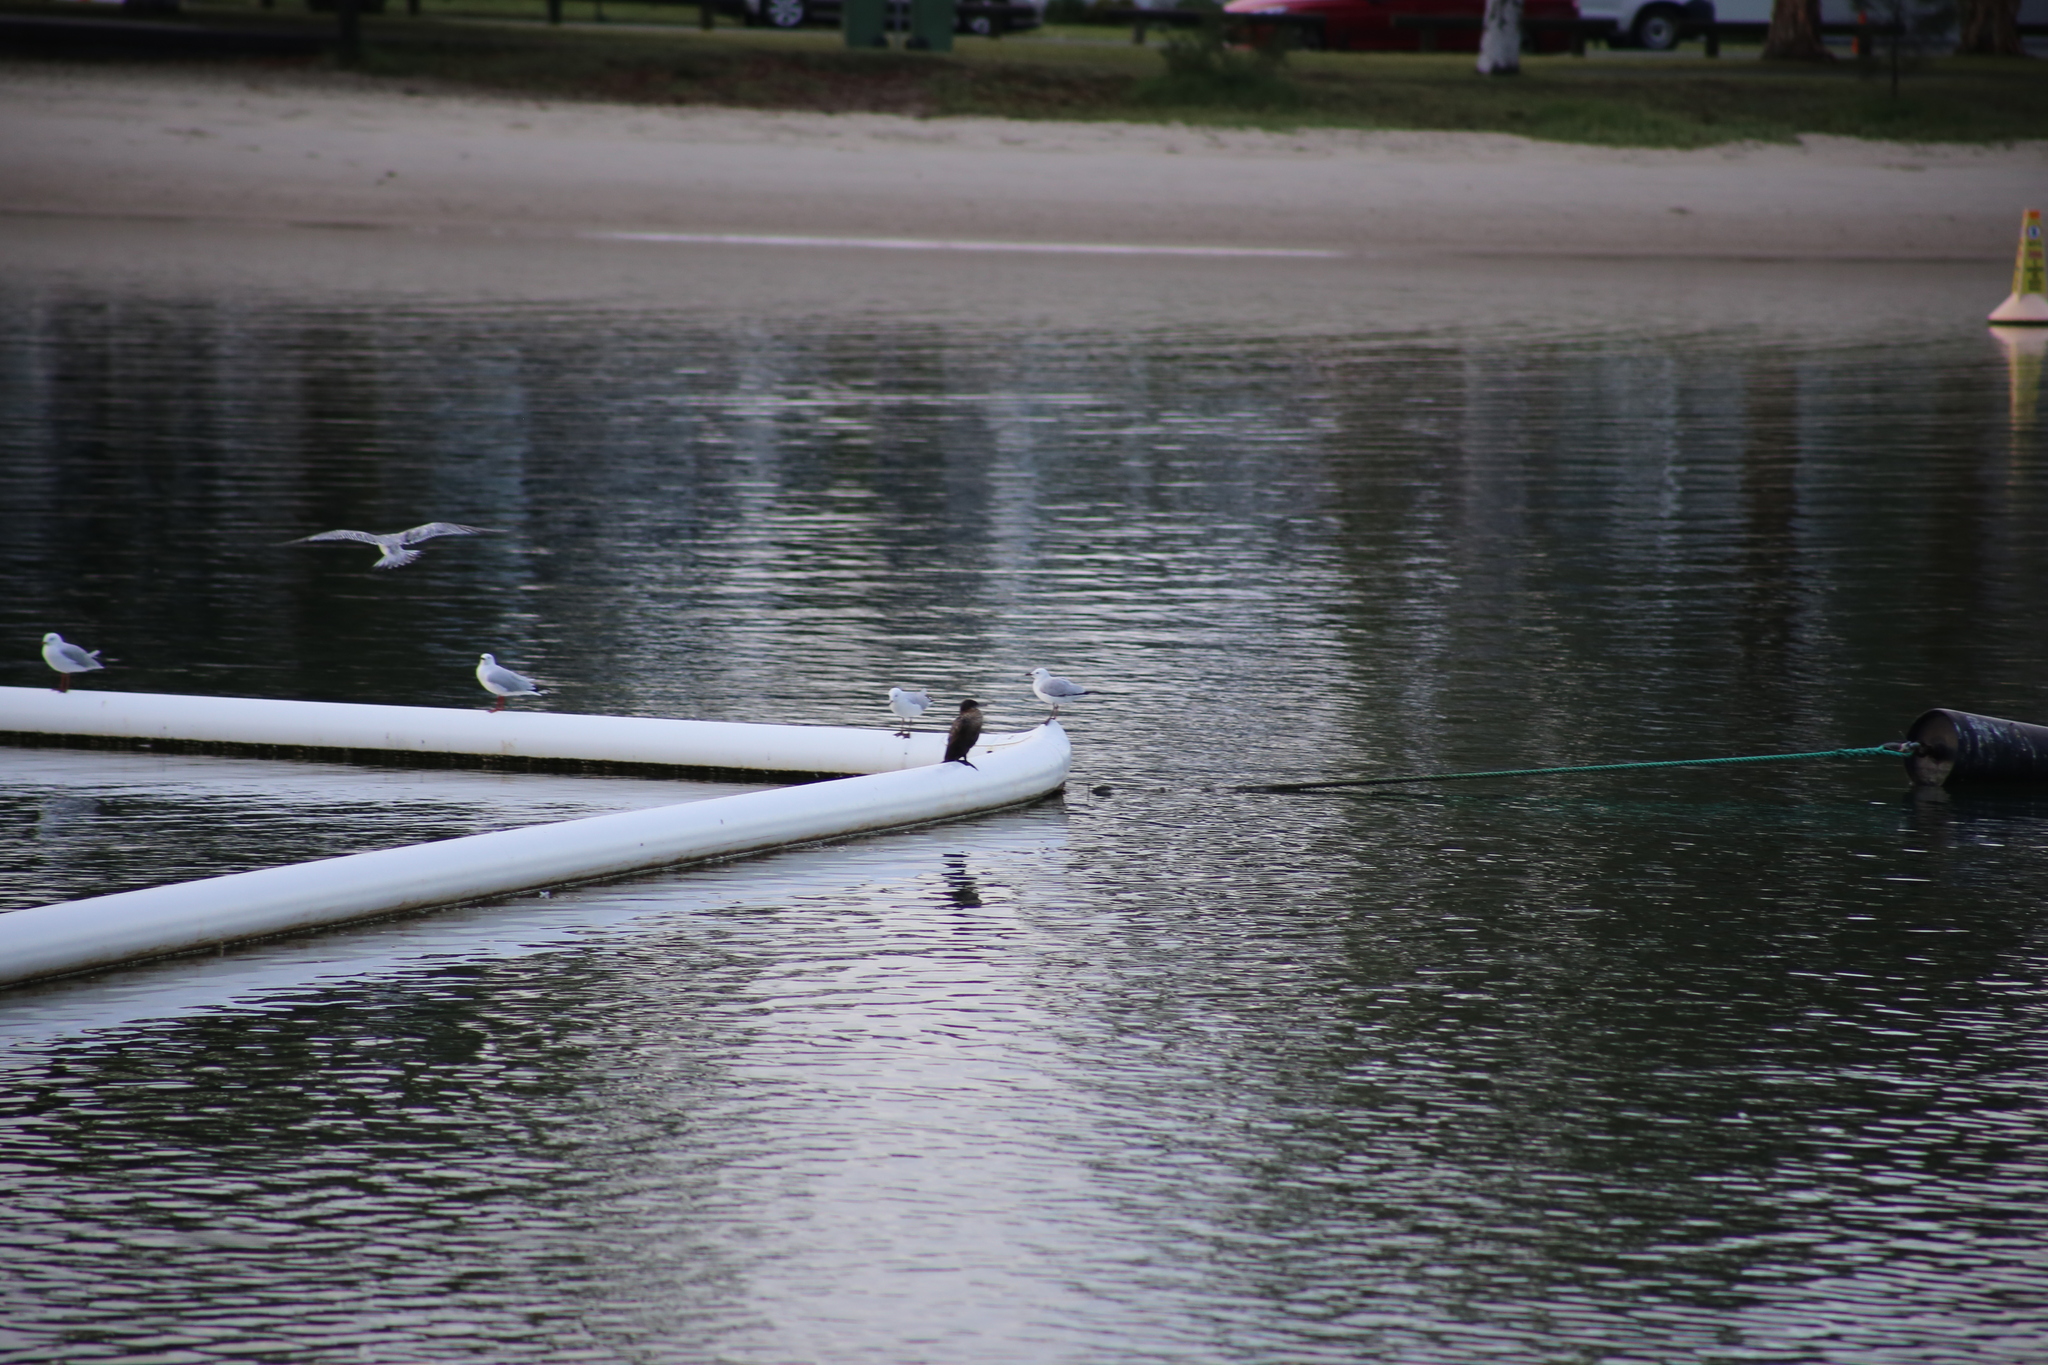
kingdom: Animalia
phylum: Chordata
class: Aves
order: Charadriiformes
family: Laridae
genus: Chroicocephalus
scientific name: Chroicocephalus novaehollandiae
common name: Silver gull
